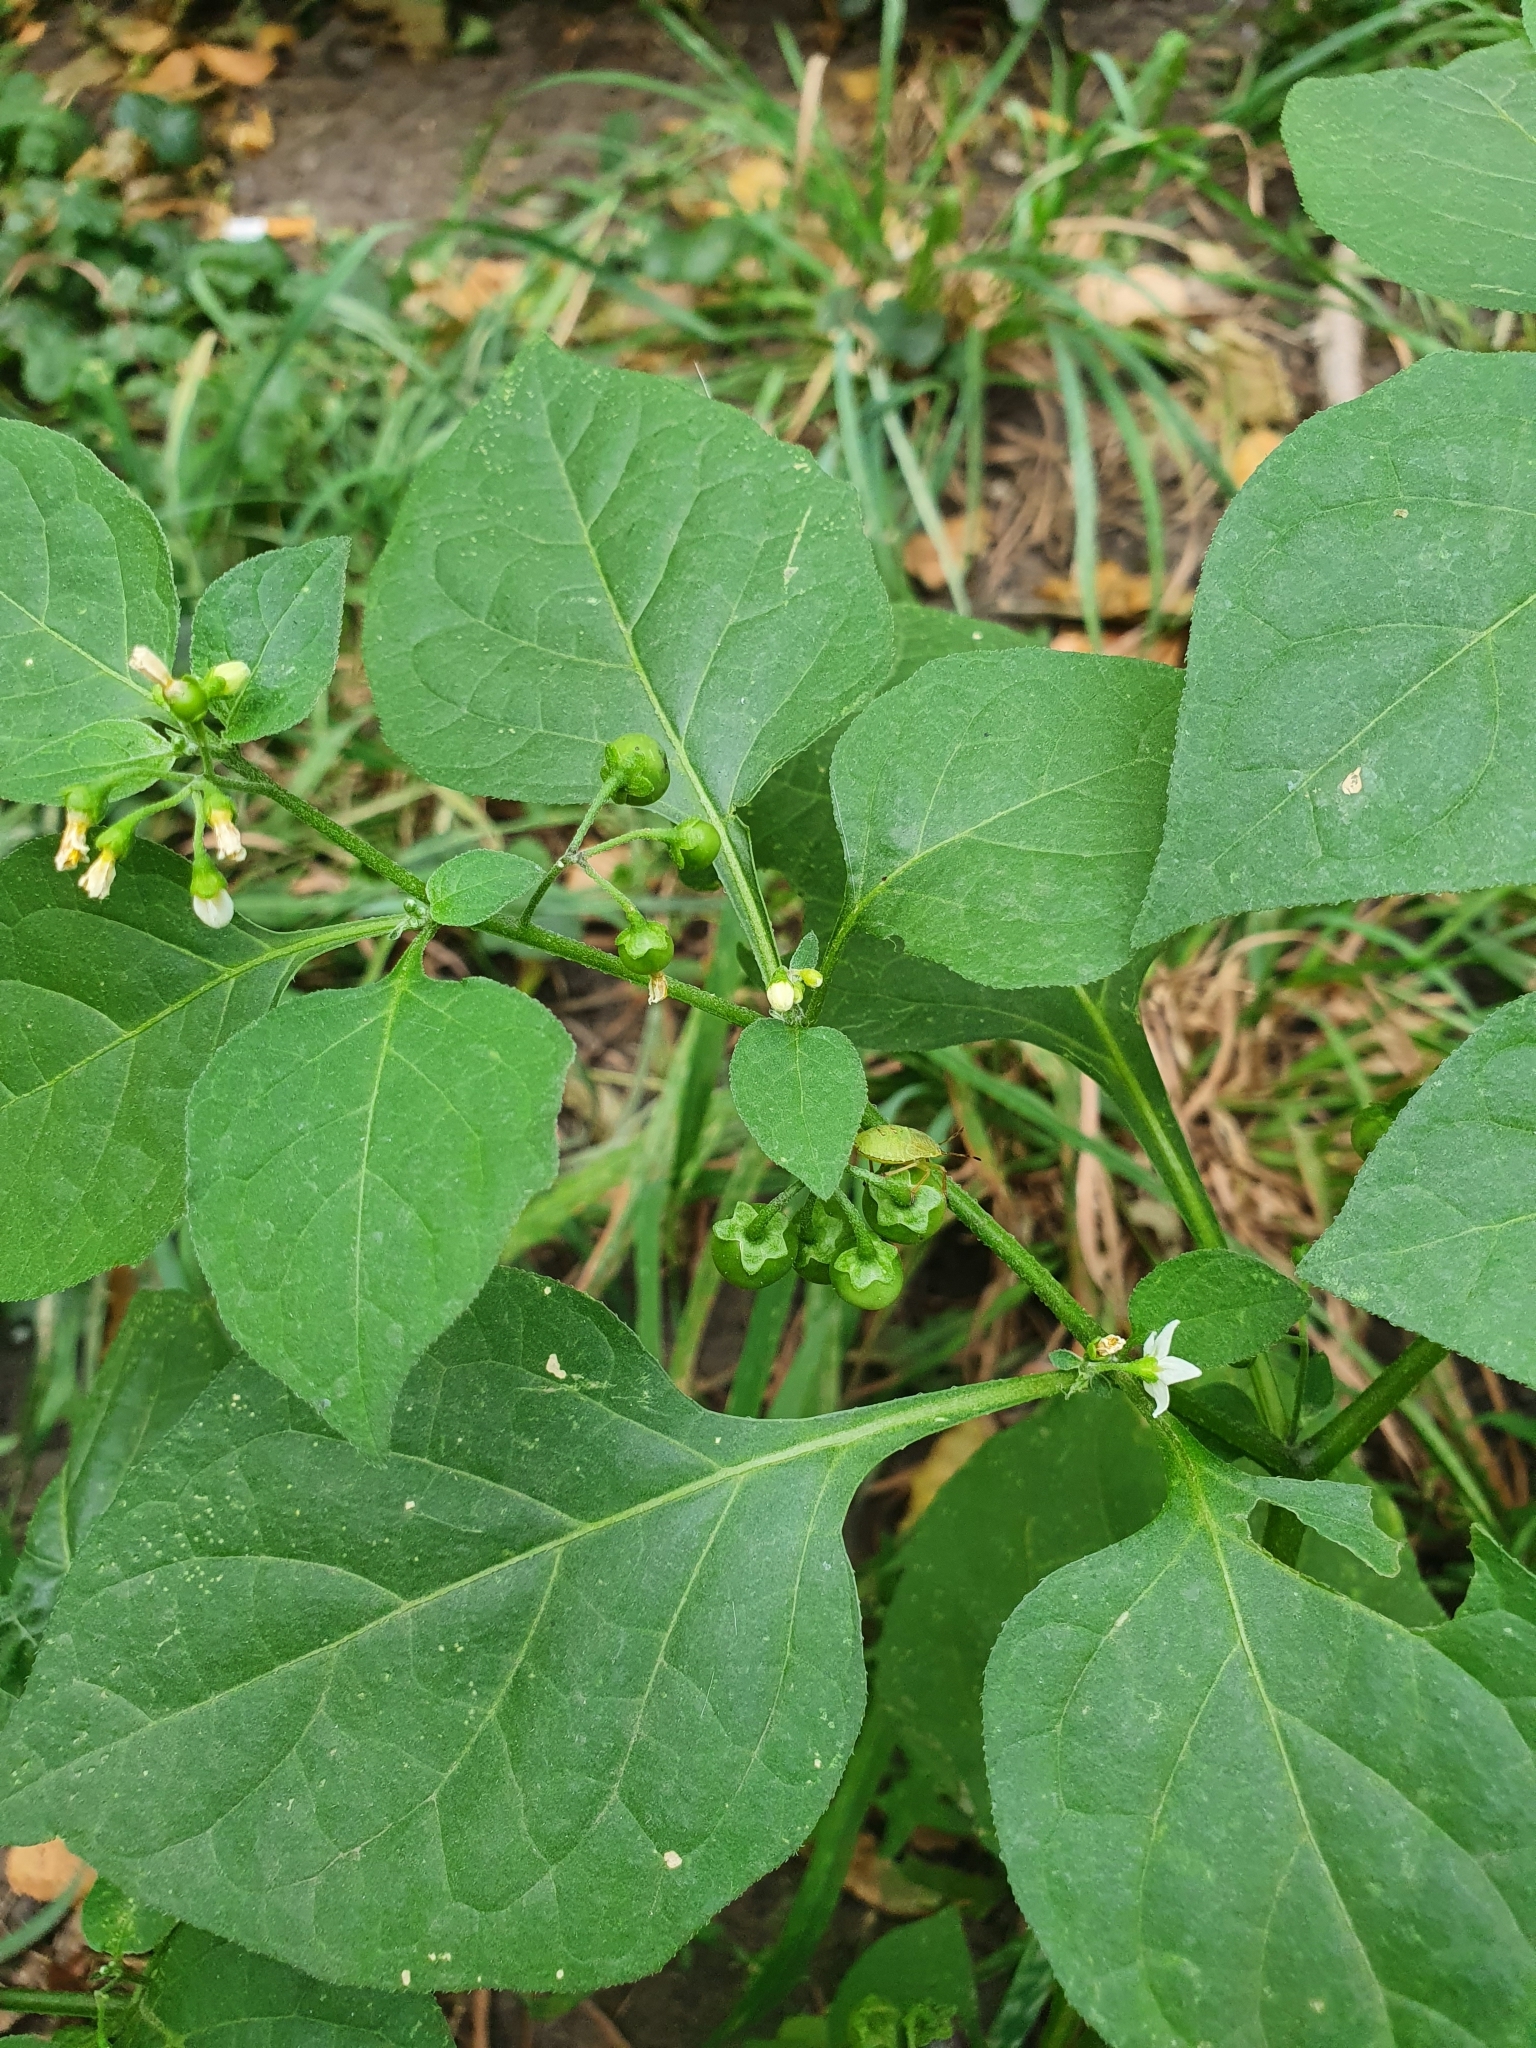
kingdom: Plantae
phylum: Tracheophyta
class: Magnoliopsida
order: Solanales
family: Solanaceae
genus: Solanum
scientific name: Solanum nigrum
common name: Black nightshade
